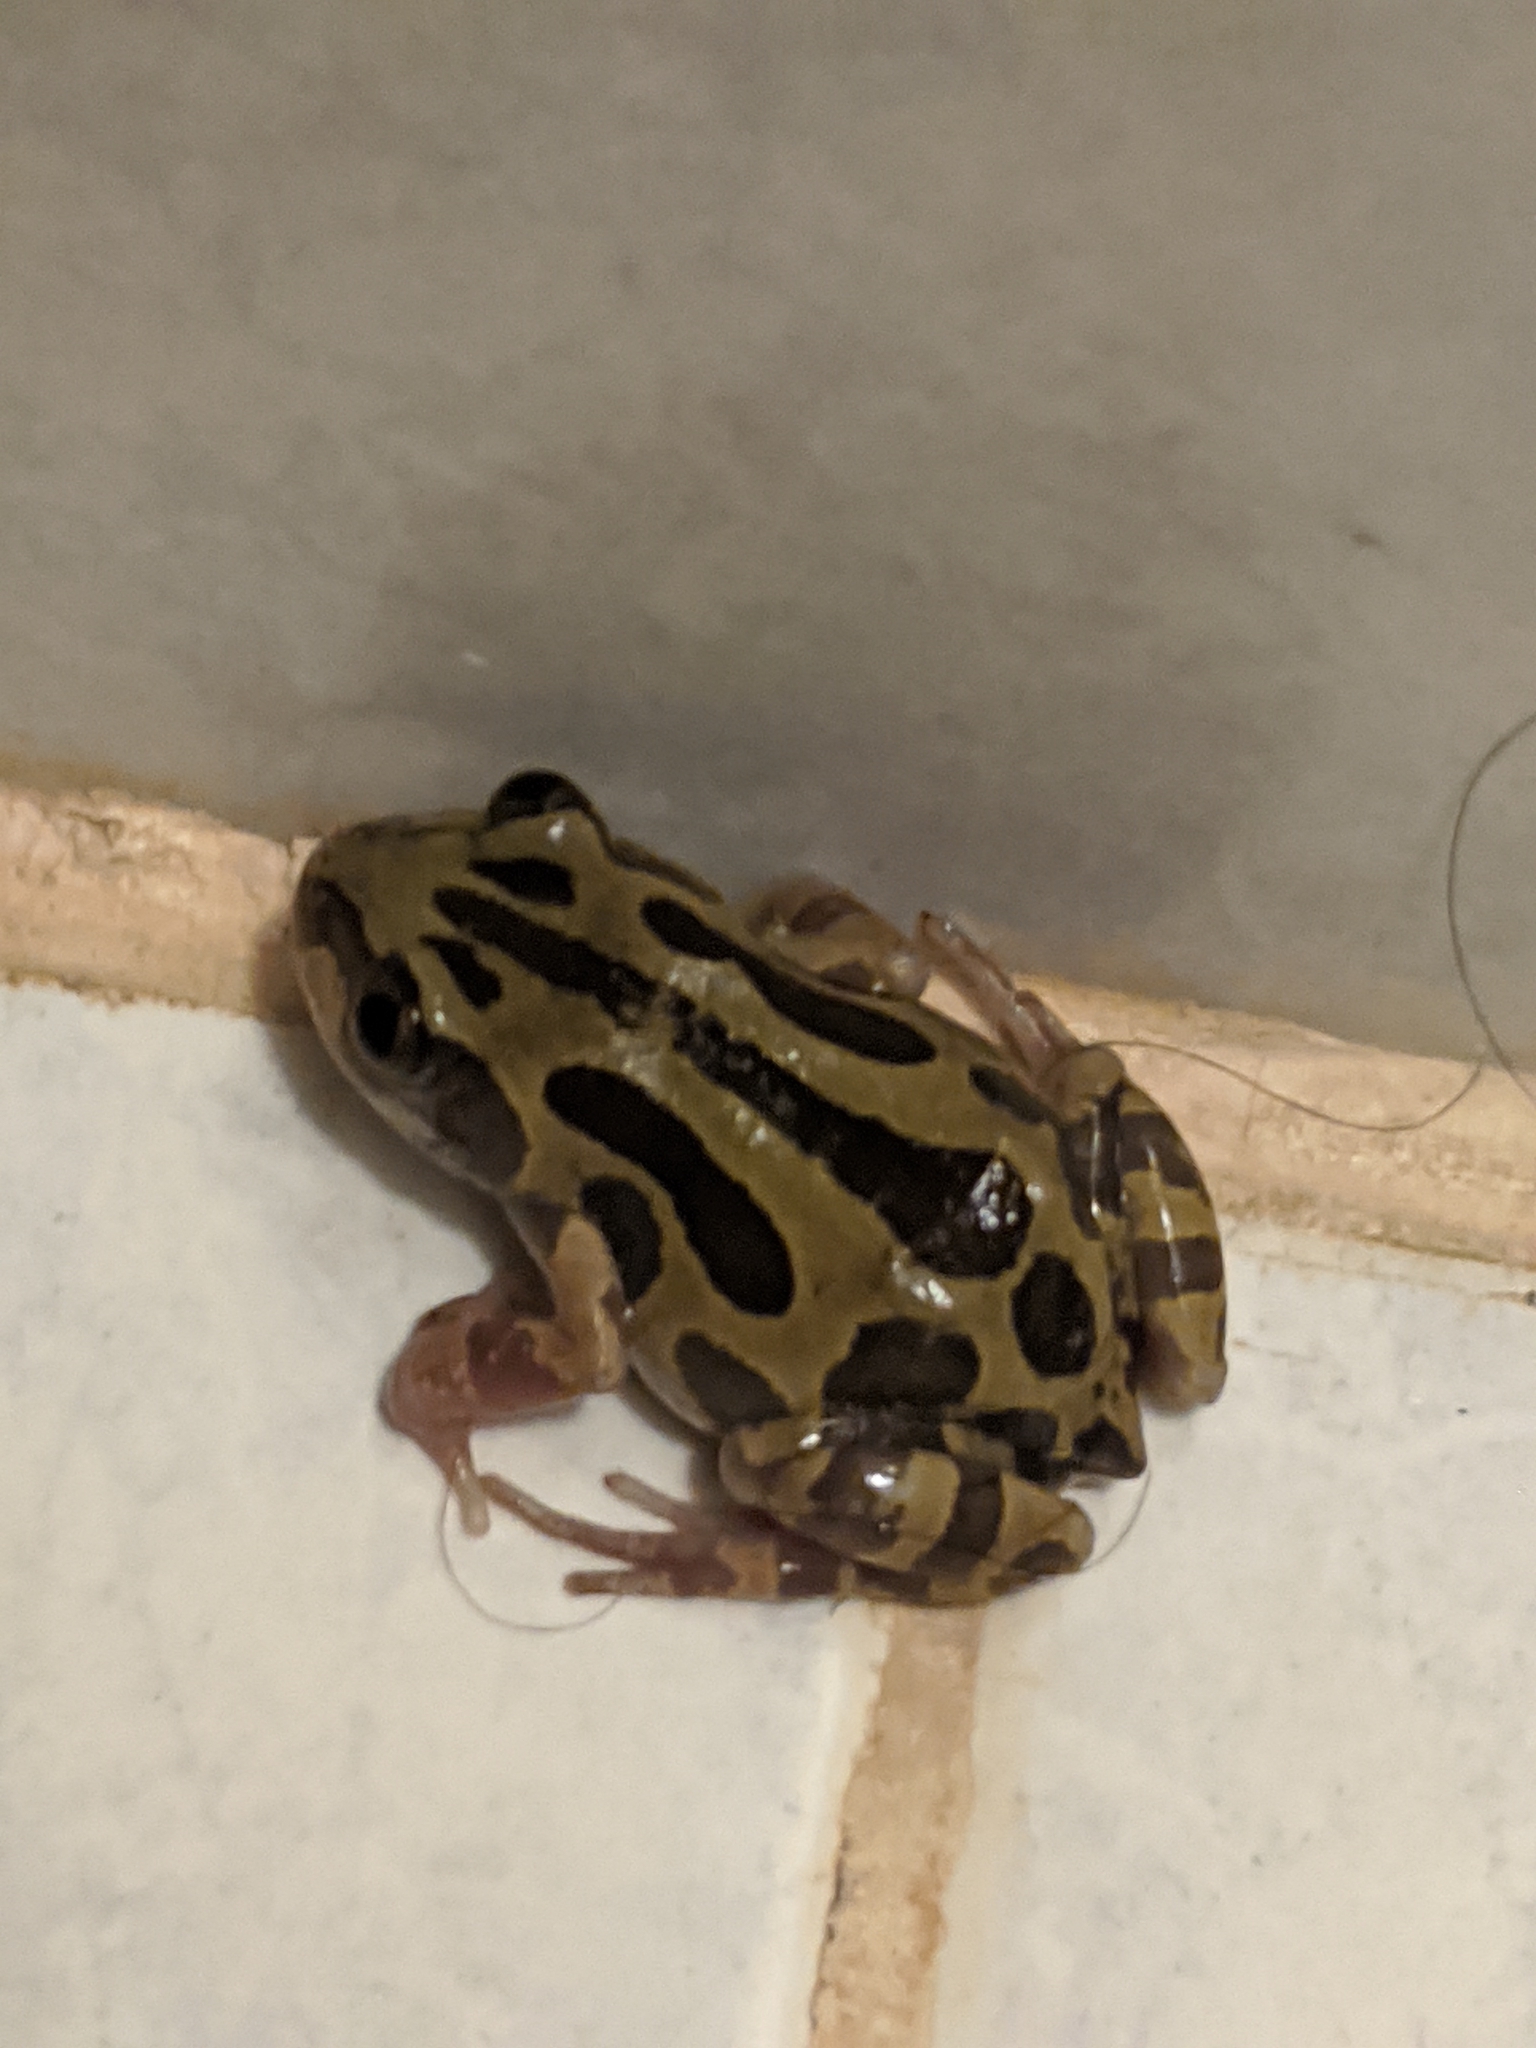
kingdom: Animalia
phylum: Chordata
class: Amphibia
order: Anura
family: Hyperoliidae
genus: Kassina
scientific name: Kassina senegalensis
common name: Senegal land frog
